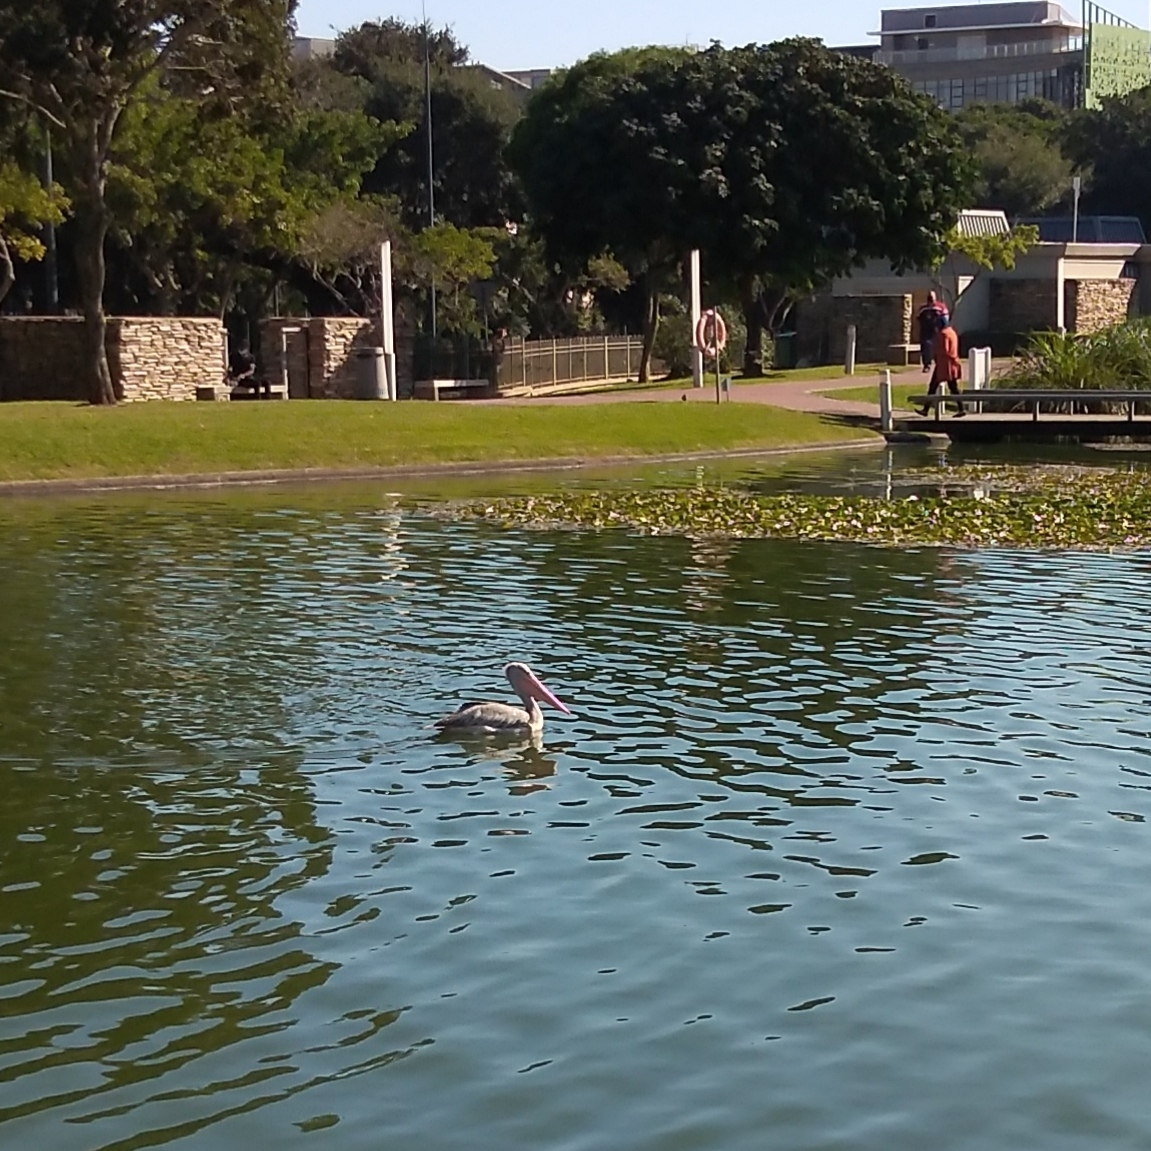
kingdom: Animalia
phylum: Chordata
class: Aves
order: Pelecaniformes
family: Pelecanidae
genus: Pelecanus
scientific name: Pelecanus rufescens
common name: Pink-backed pelican
